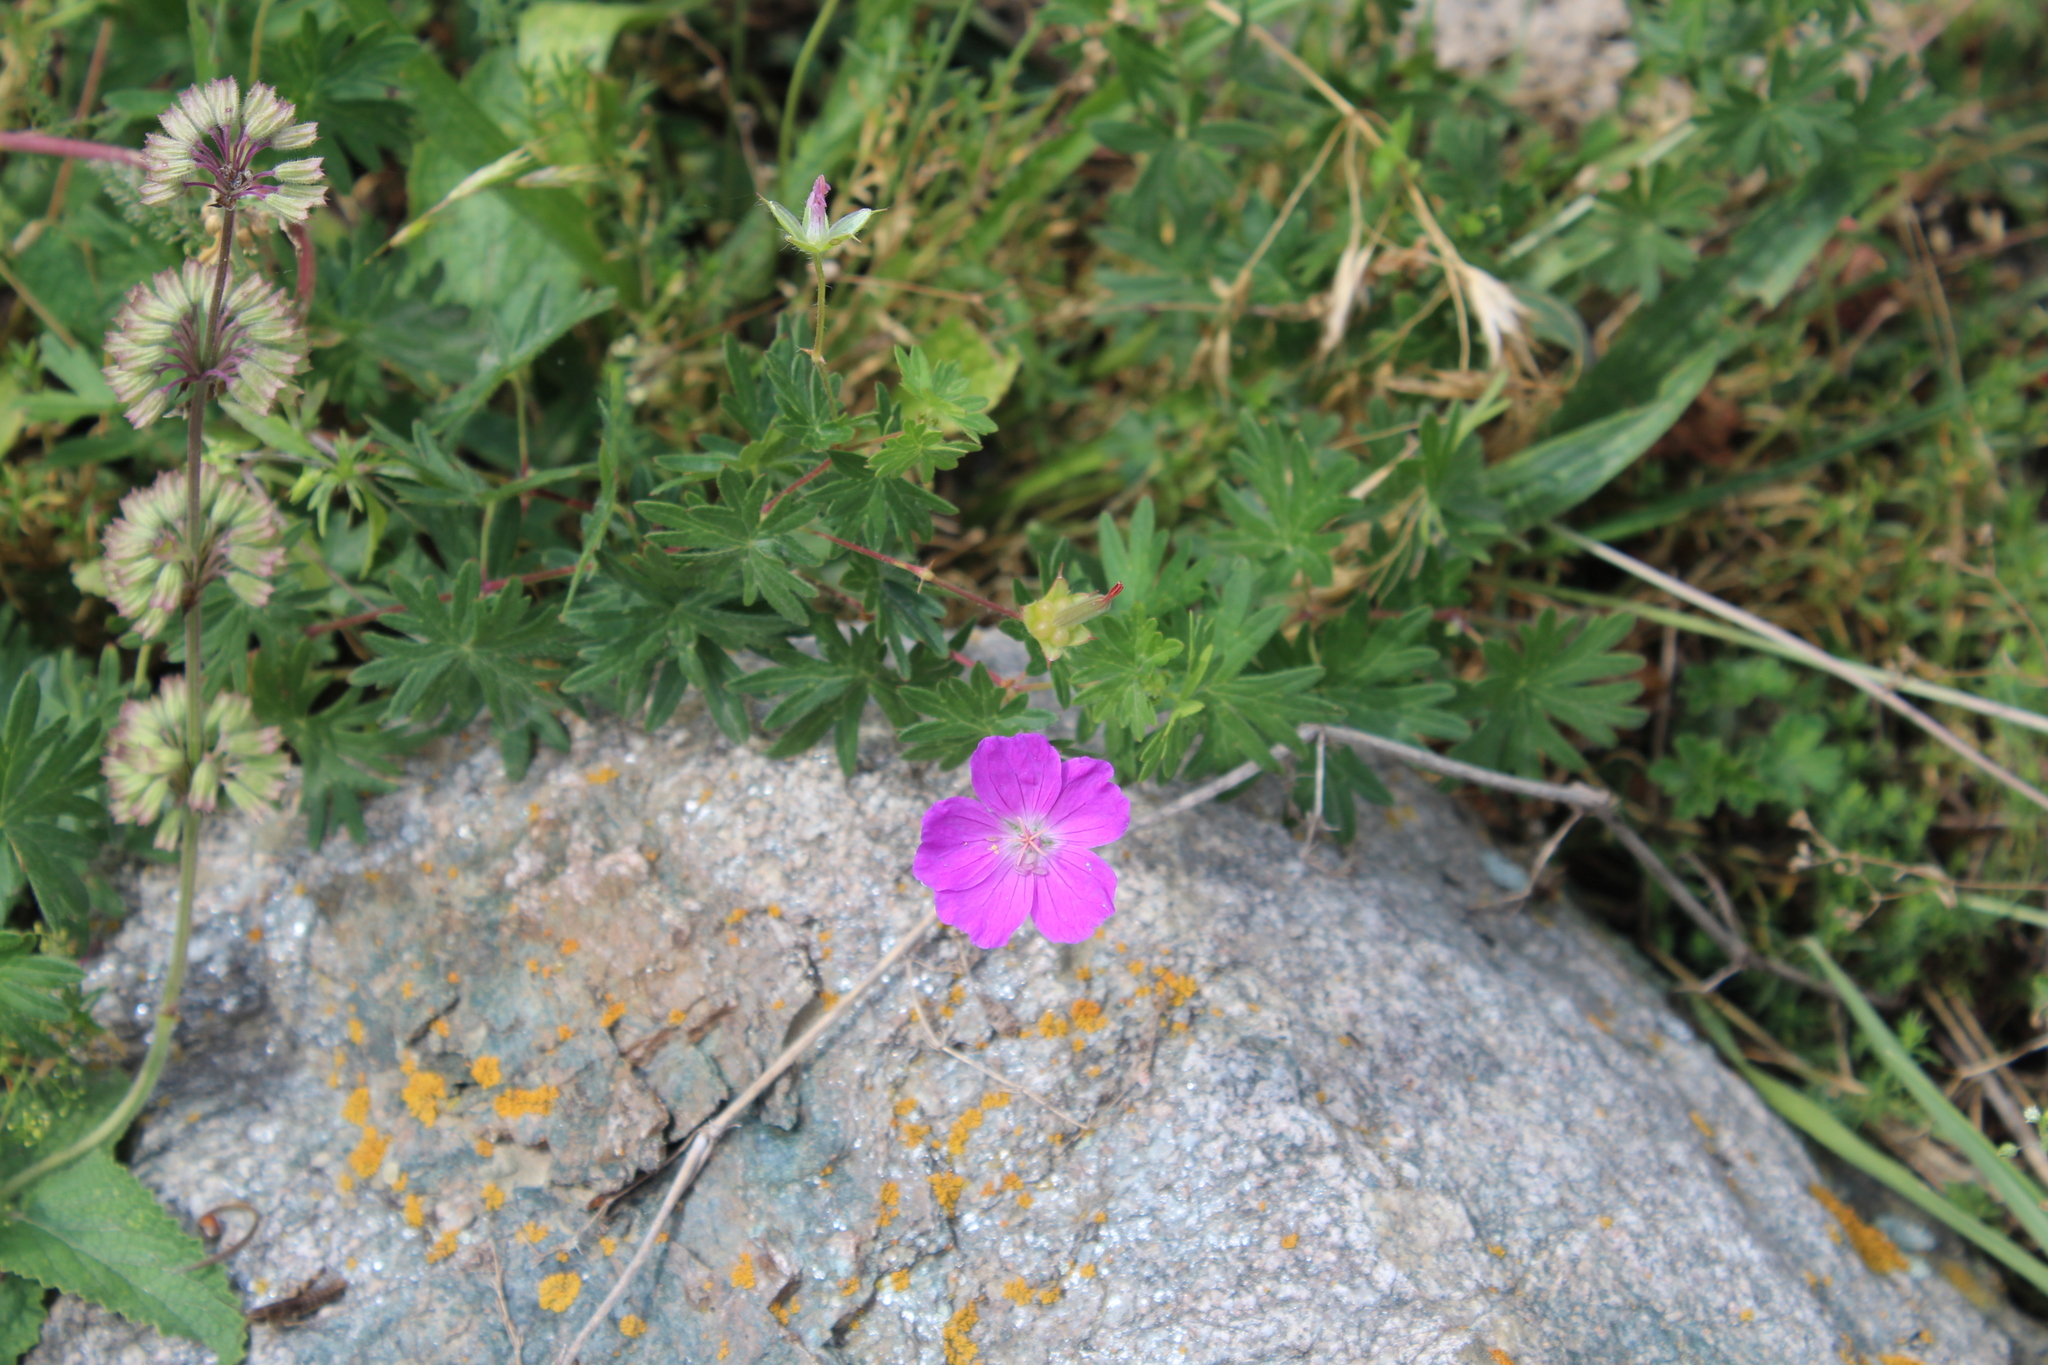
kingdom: Plantae
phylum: Tracheophyta
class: Magnoliopsida
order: Geraniales
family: Geraniaceae
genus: Geranium
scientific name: Geranium sanguineum
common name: Bloody crane's-bill
